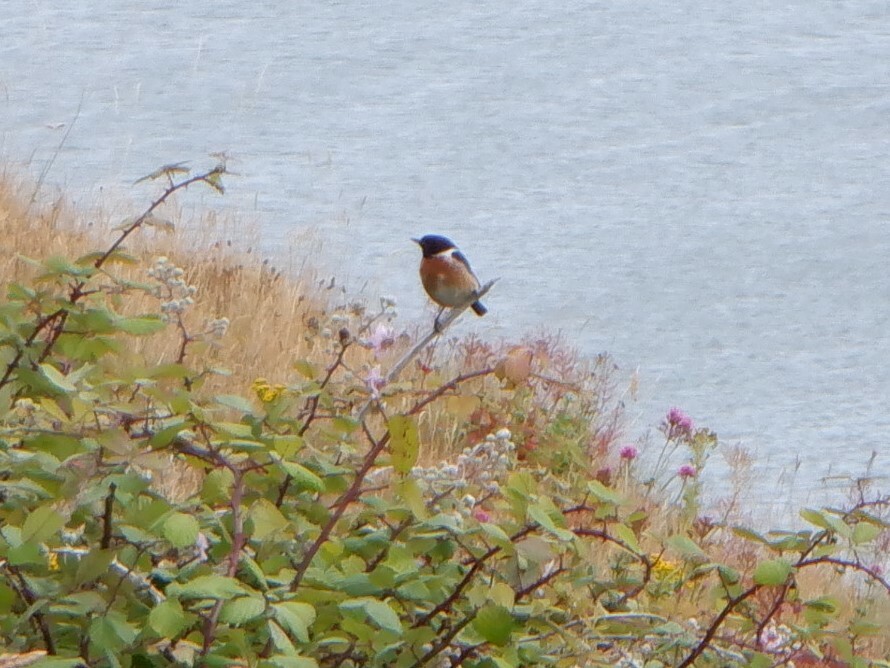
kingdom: Animalia
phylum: Chordata
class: Aves
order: Passeriformes
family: Muscicapidae
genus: Saxicola
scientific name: Saxicola rubicola
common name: European stonechat
